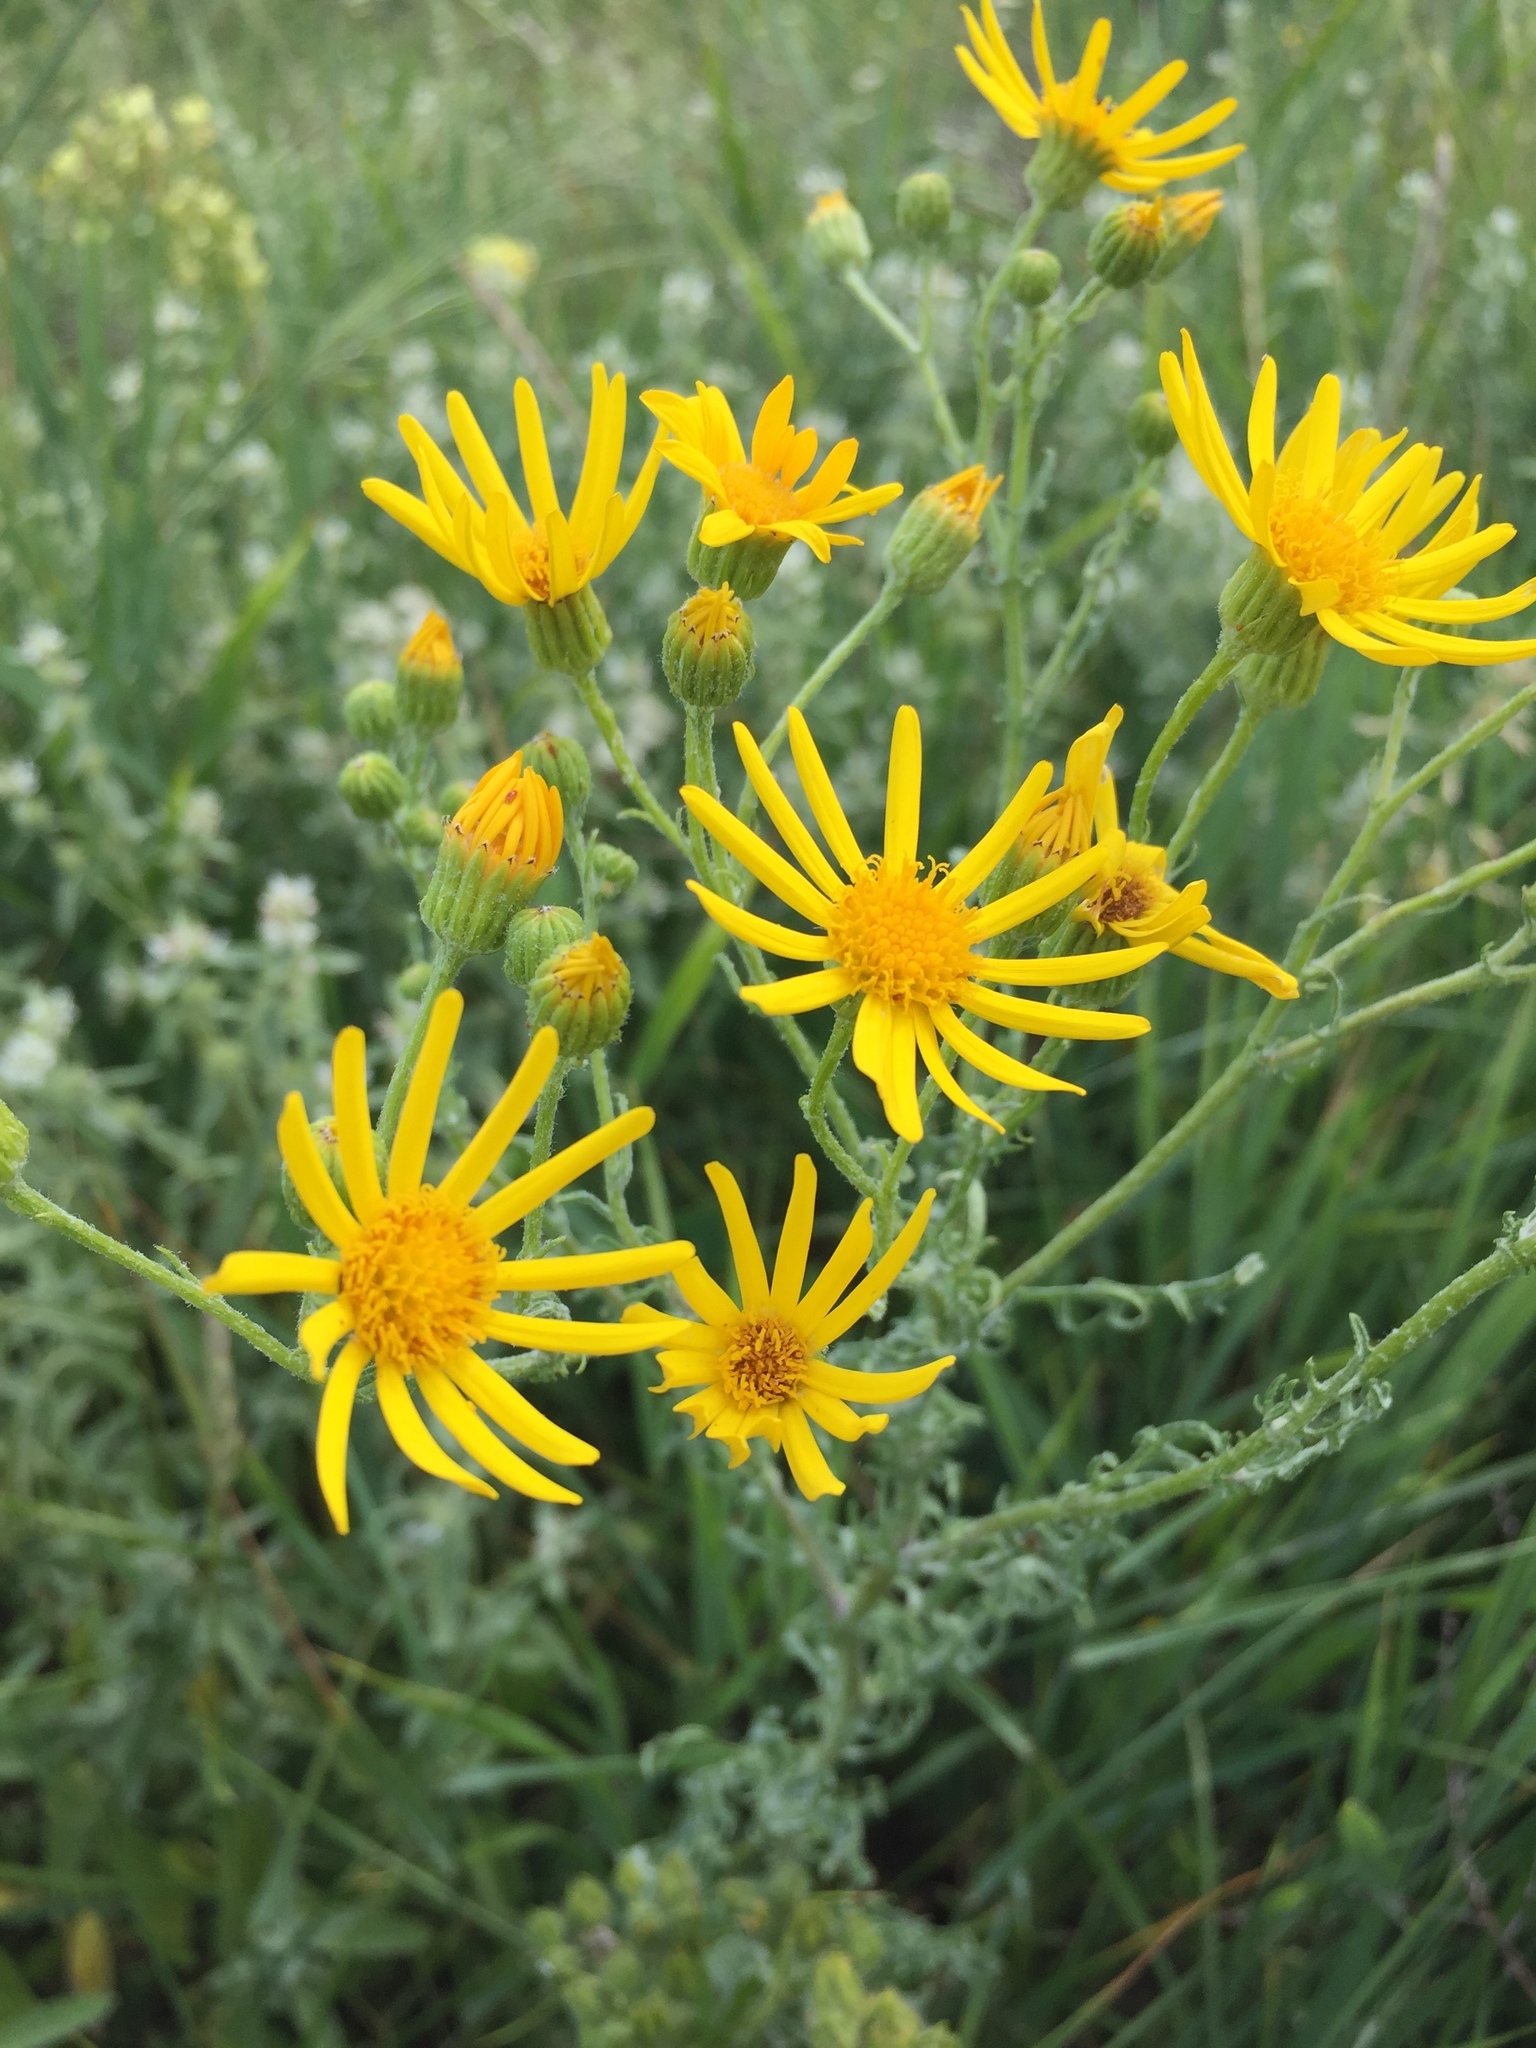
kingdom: Plantae
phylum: Tracheophyta
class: Magnoliopsida
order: Asterales
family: Asteraceae
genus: Jacobaea
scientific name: Jacobaea vulgaris
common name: Stinking willie
